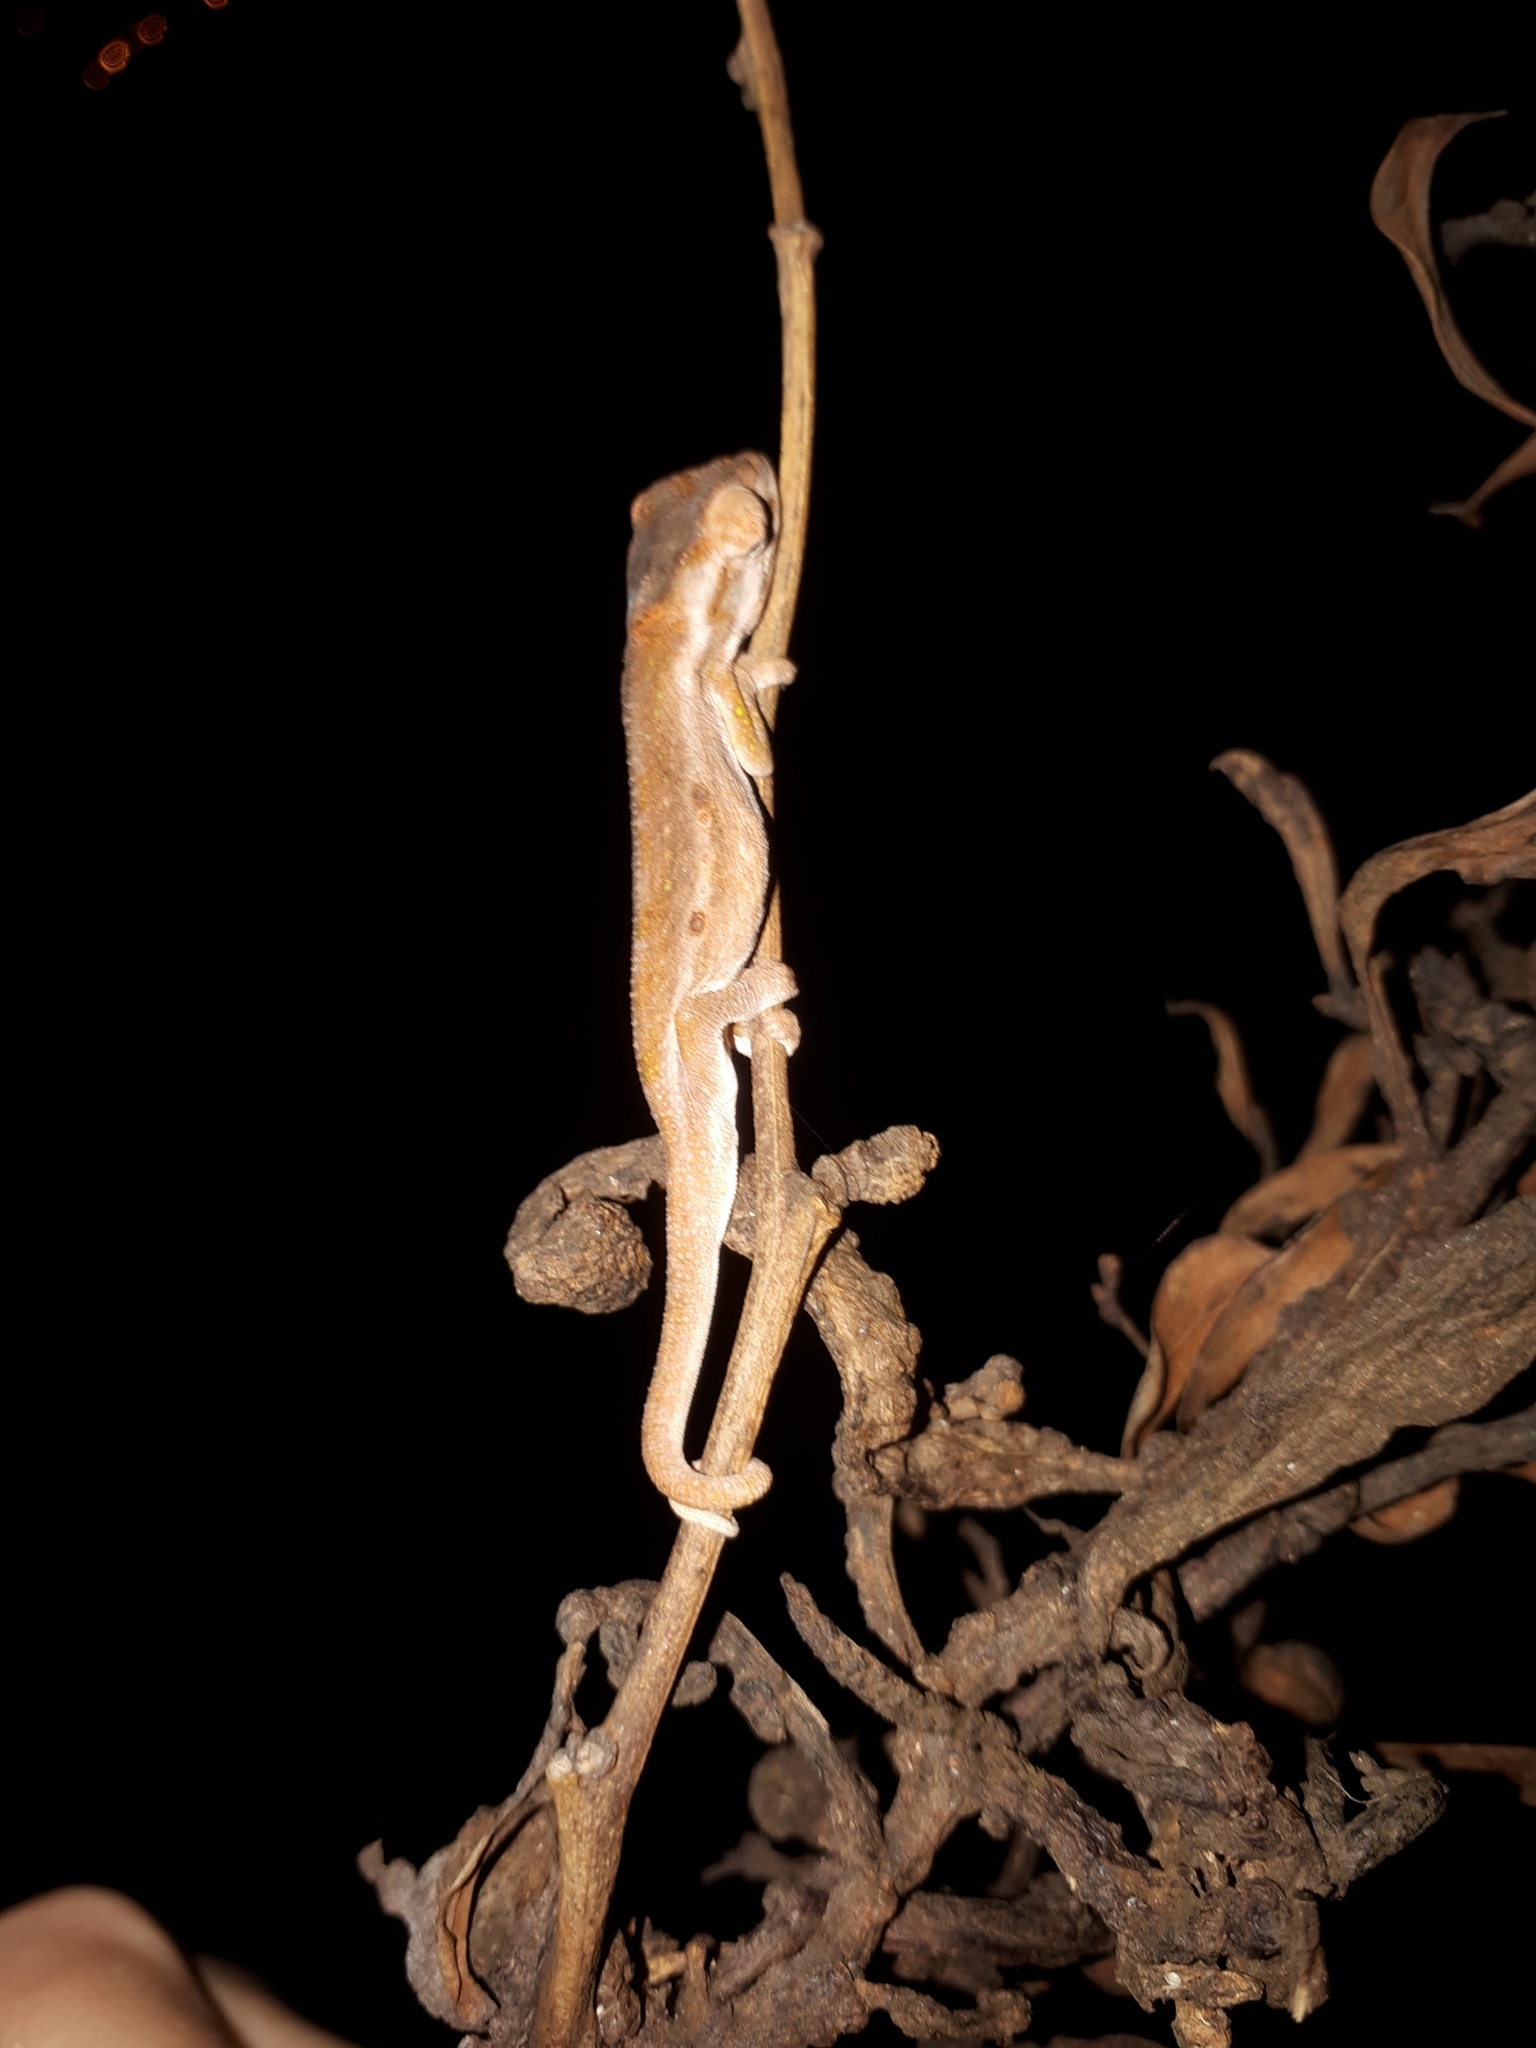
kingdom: Animalia
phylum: Chordata
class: Squamata
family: Chamaeleonidae
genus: Bradypodion
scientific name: Bradypodion pumilum
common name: Cape dwarf chameleon
